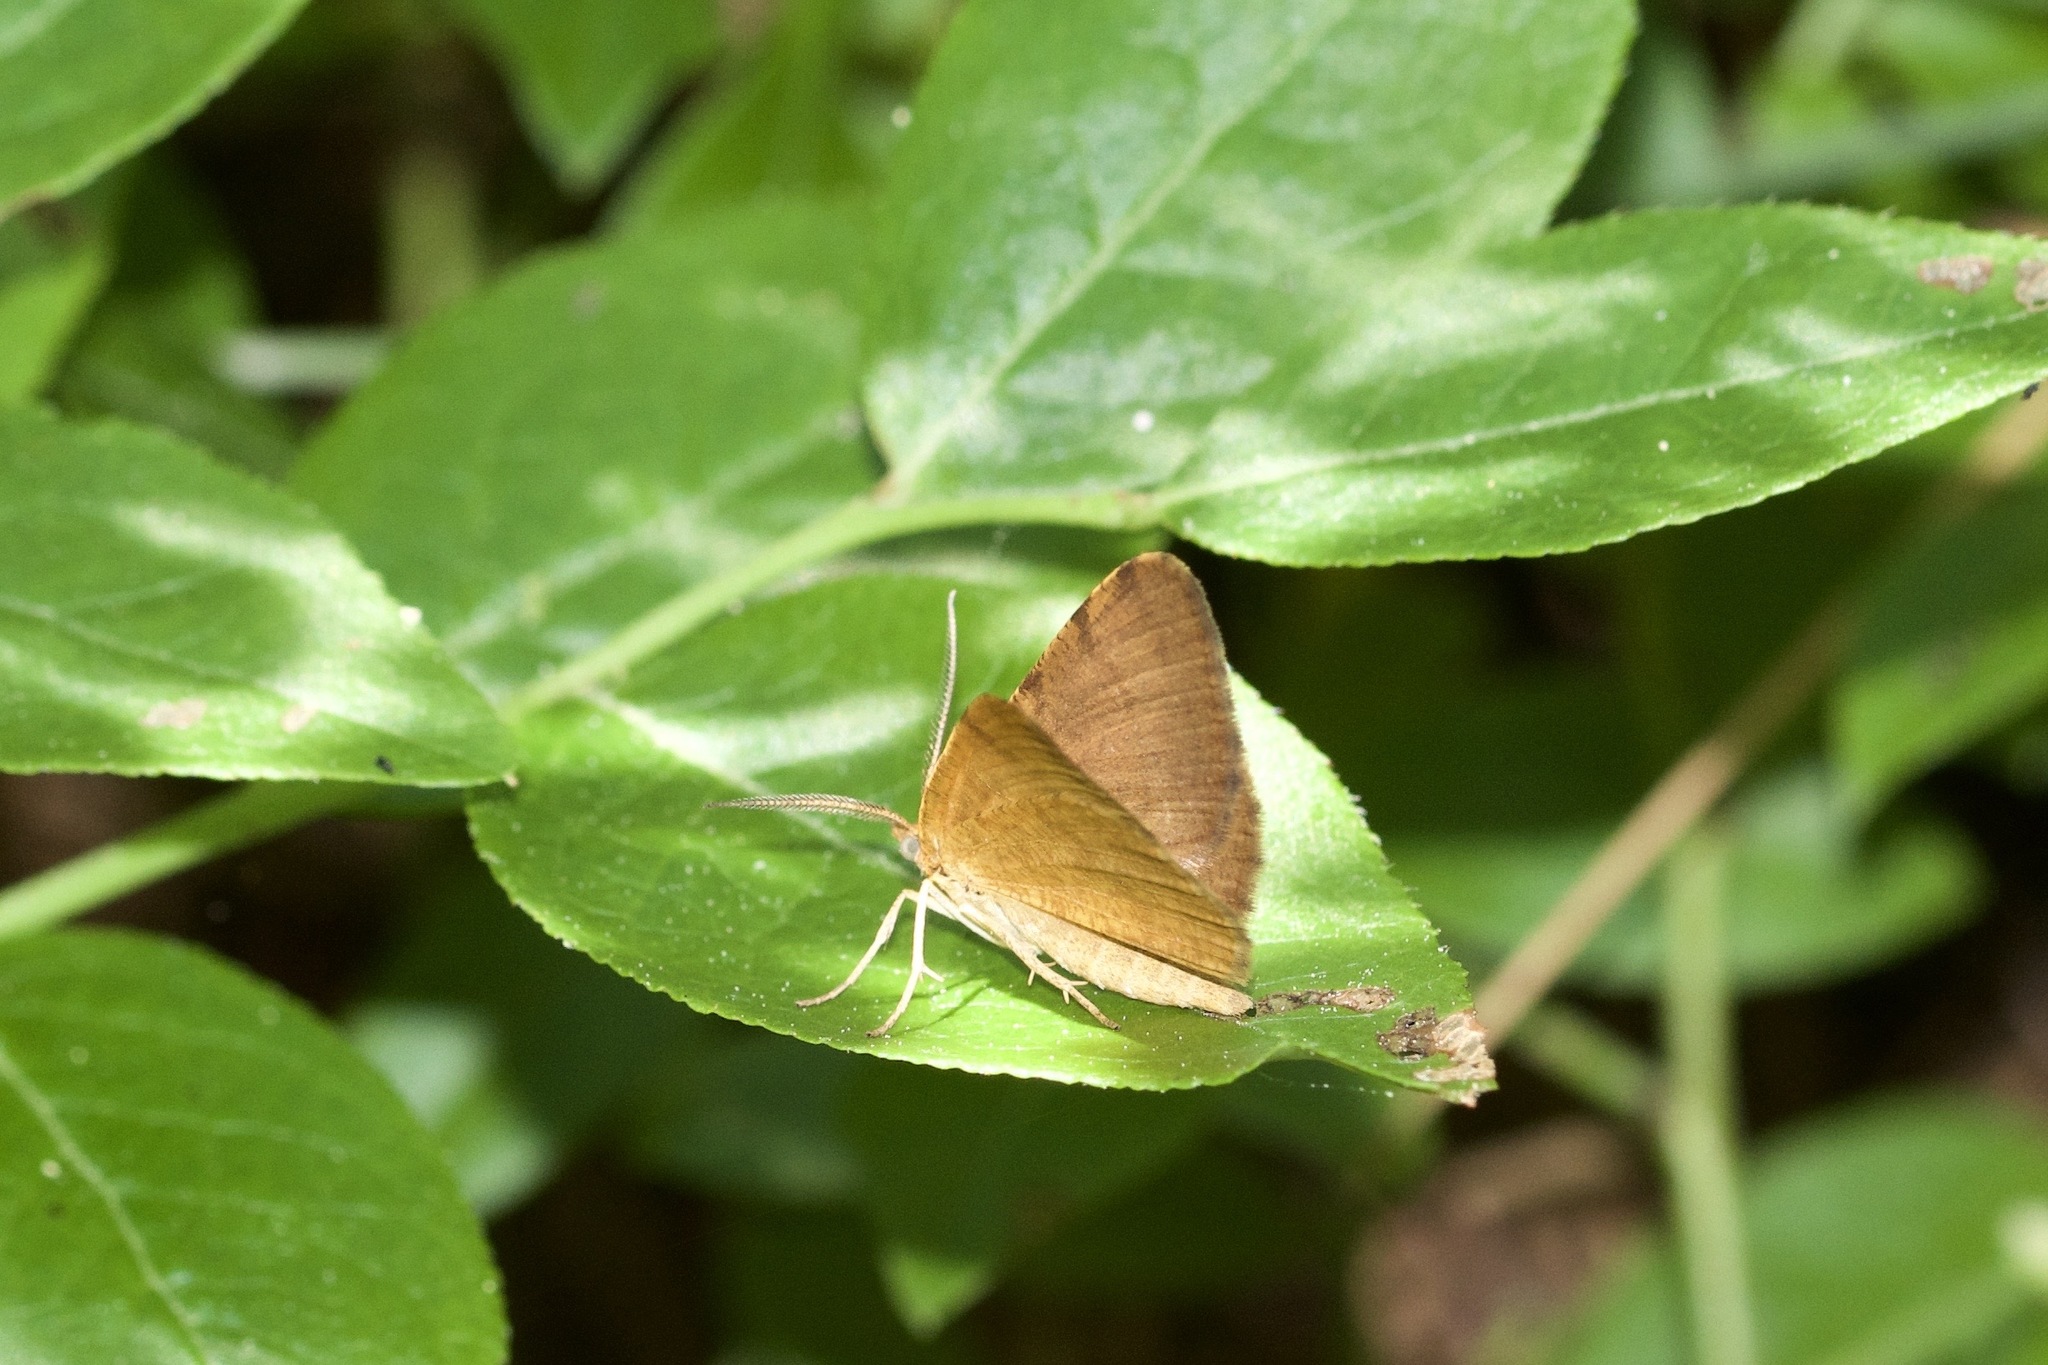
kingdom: Animalia
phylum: Arthropoda
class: Insecta
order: Lepidoptera
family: Geometridae
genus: Macaria
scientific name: Macaria brunneata
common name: Rannoch looper
